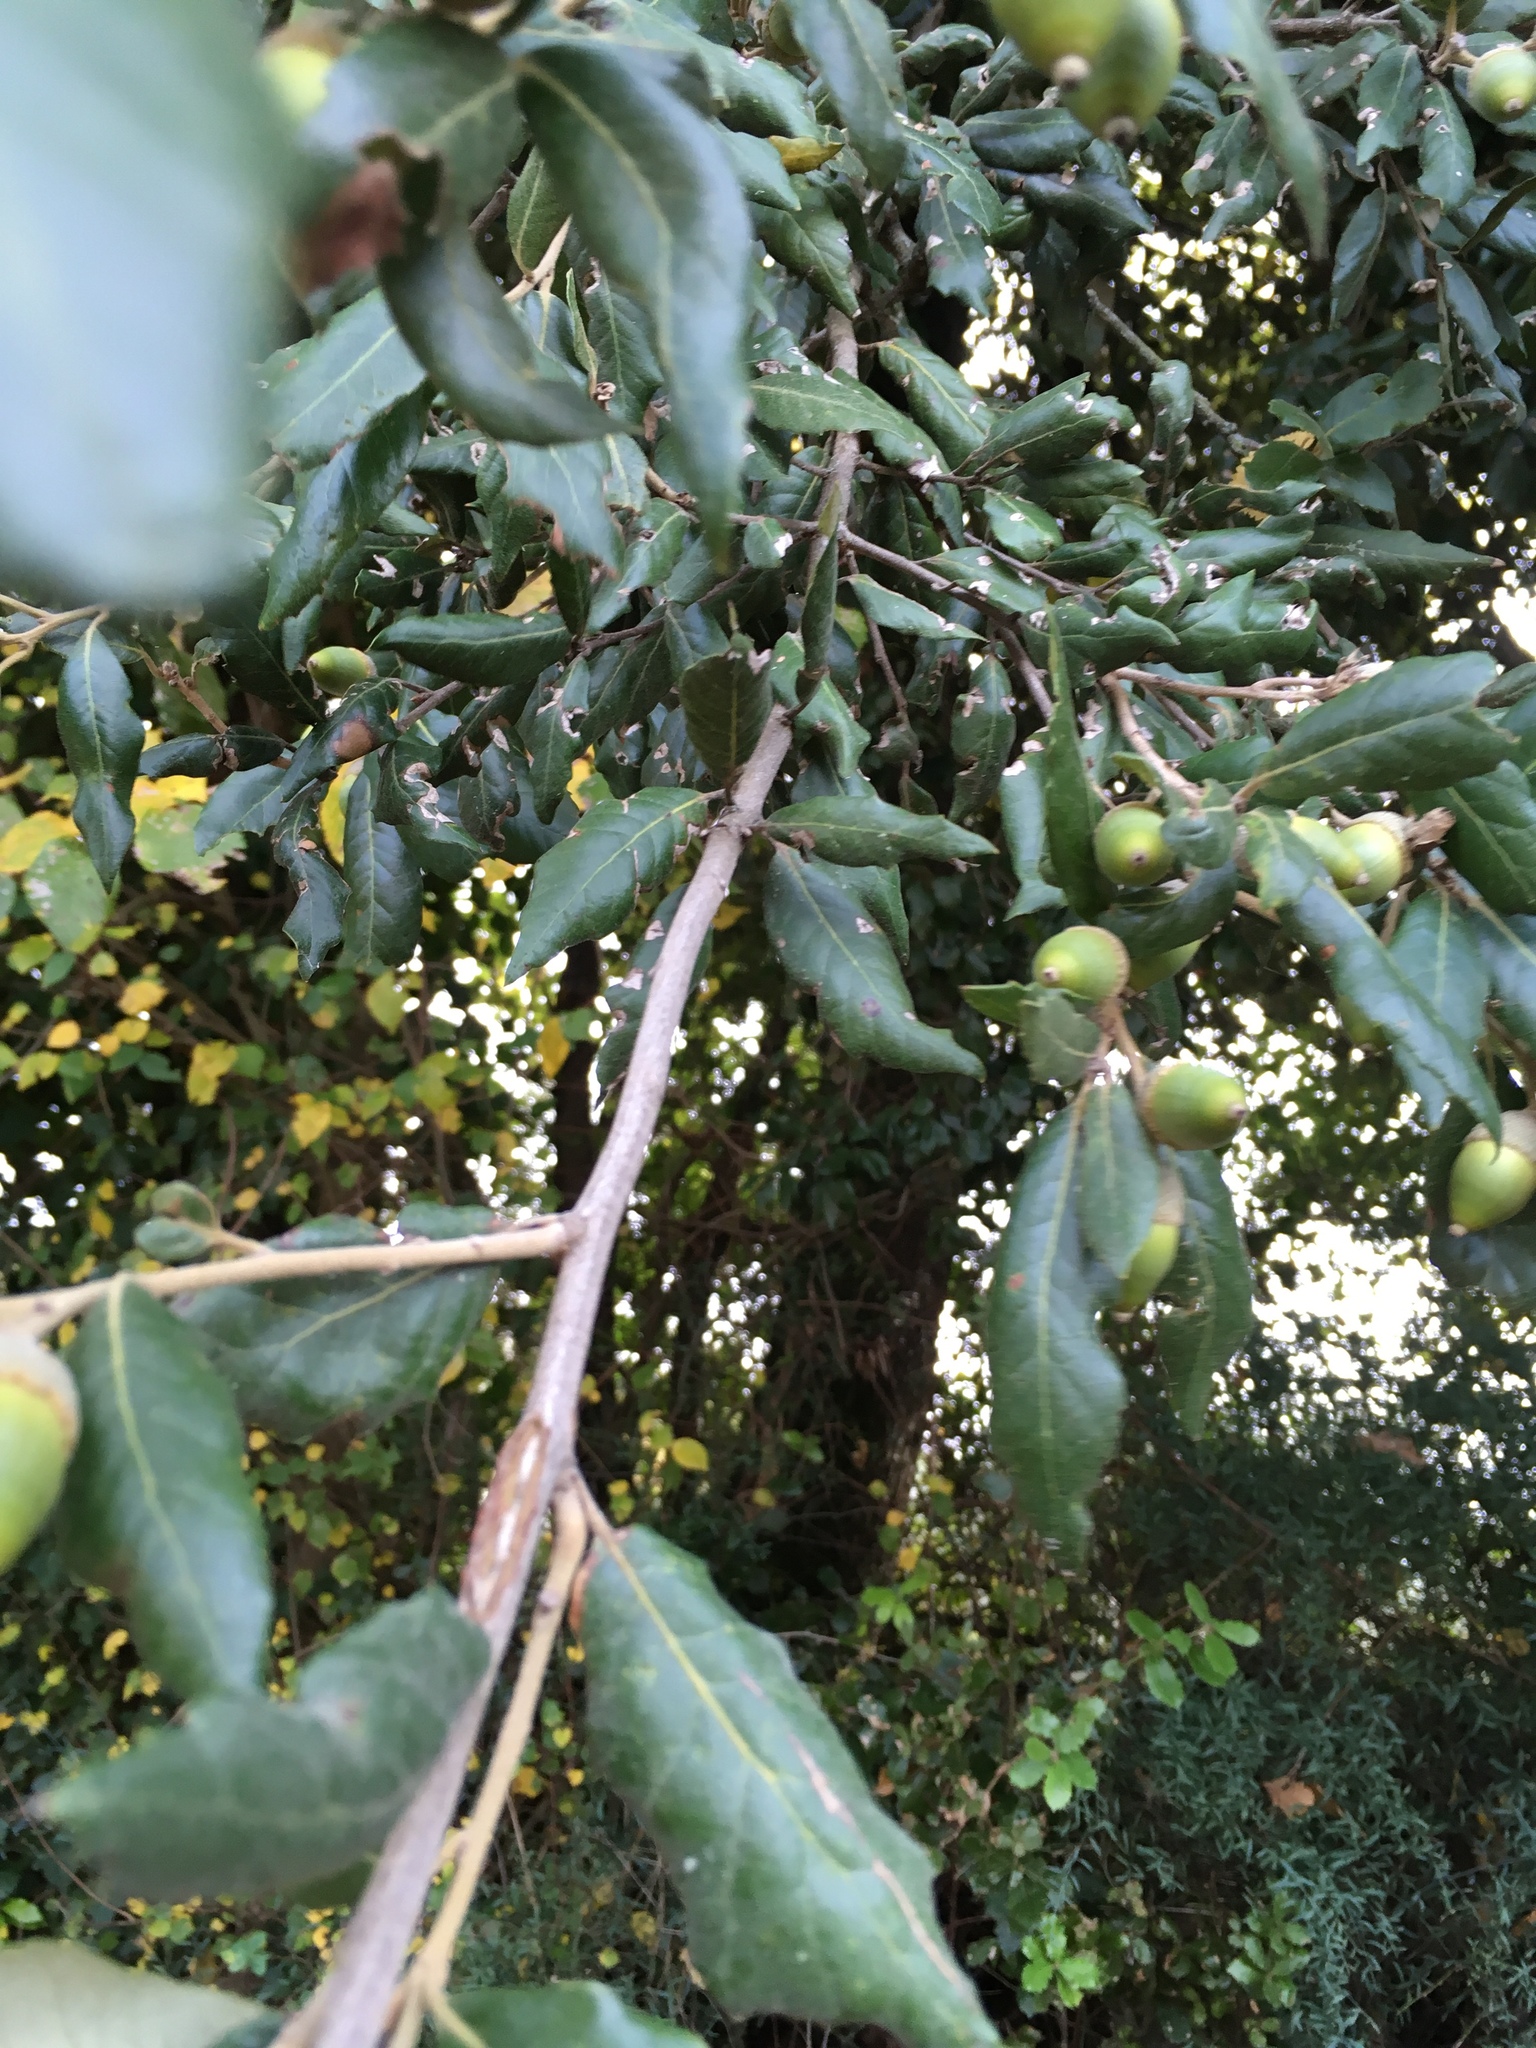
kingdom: Plantae
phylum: Tracheophyta
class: Magnoliopsida
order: Fagales
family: Fagaceae
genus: Quercus
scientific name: Quercus ilex
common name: Evergreen oak
